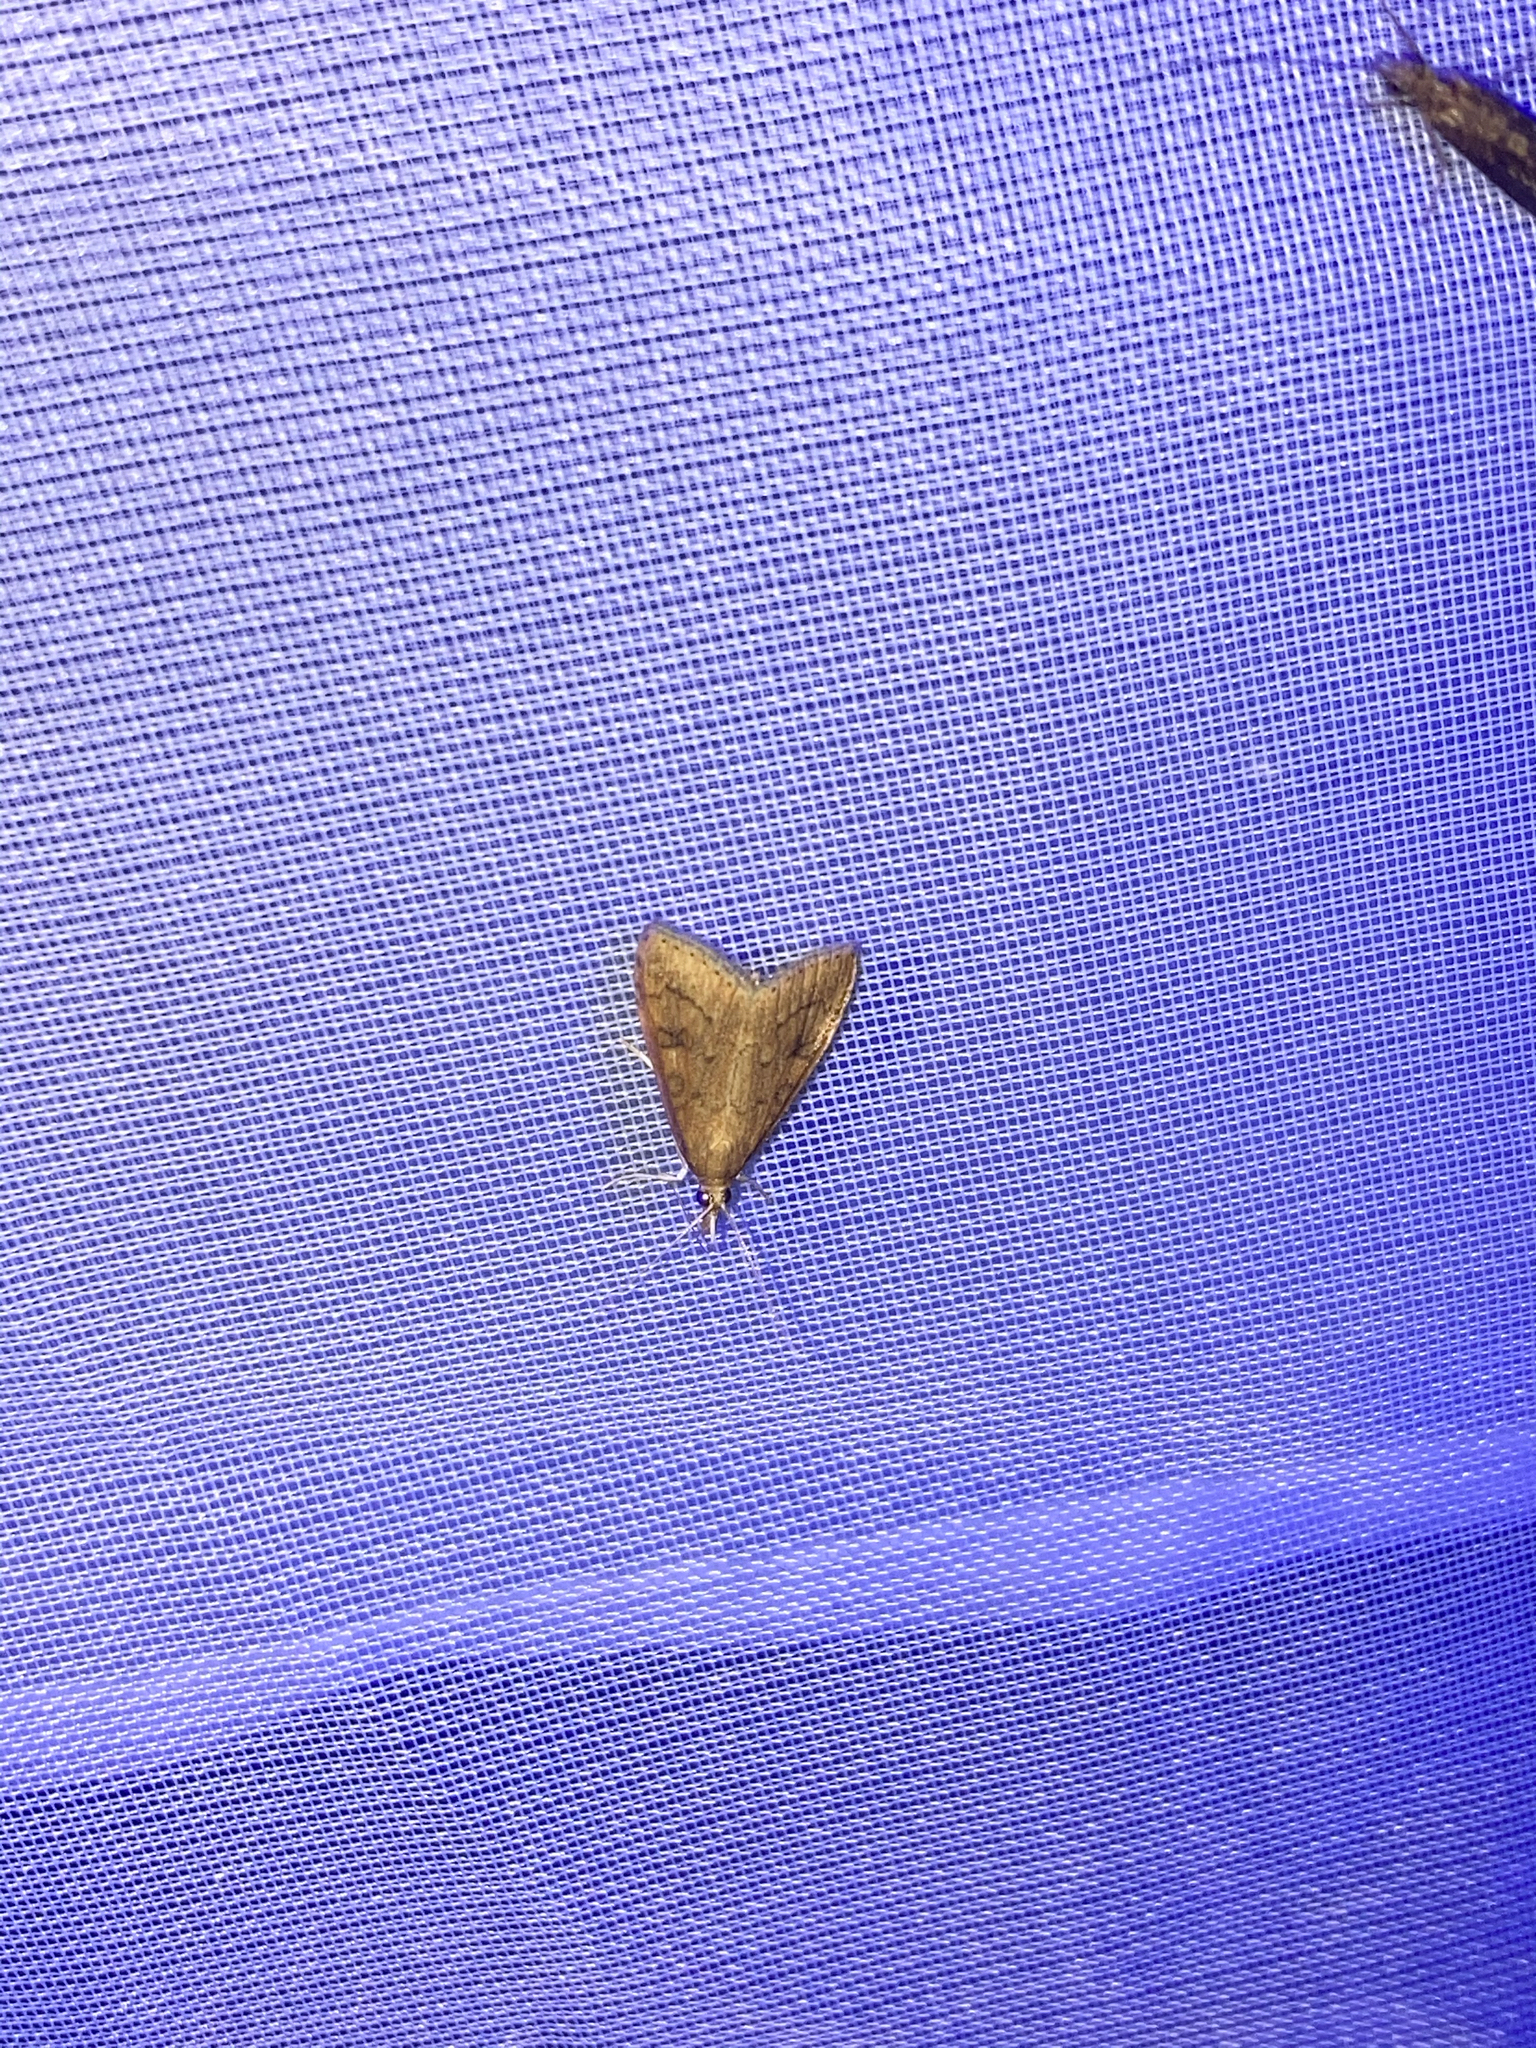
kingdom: Animalia
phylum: Arthropoda
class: Insecta
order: Lepidoptera
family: Crambidae
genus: Udea
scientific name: Udea rubigalis
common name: Celery leaftier moth
